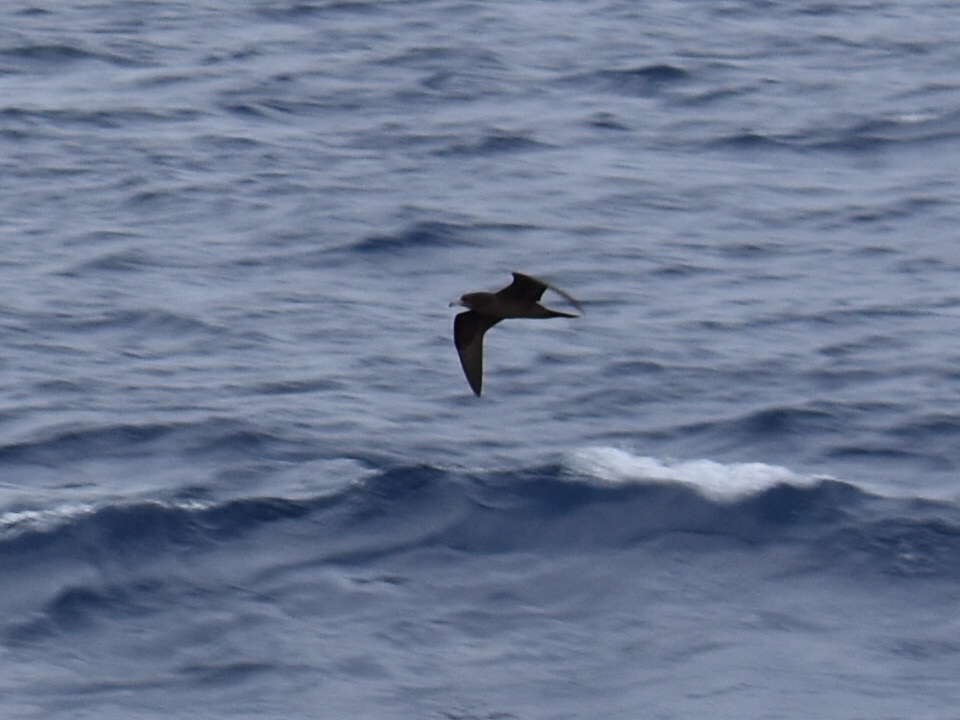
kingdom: Animalia
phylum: Chordata
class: Aves
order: Procellariiformes
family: Procellariidae
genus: Puffinus
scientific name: Puffinus pacificus
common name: Wedge-tailed shearwater
